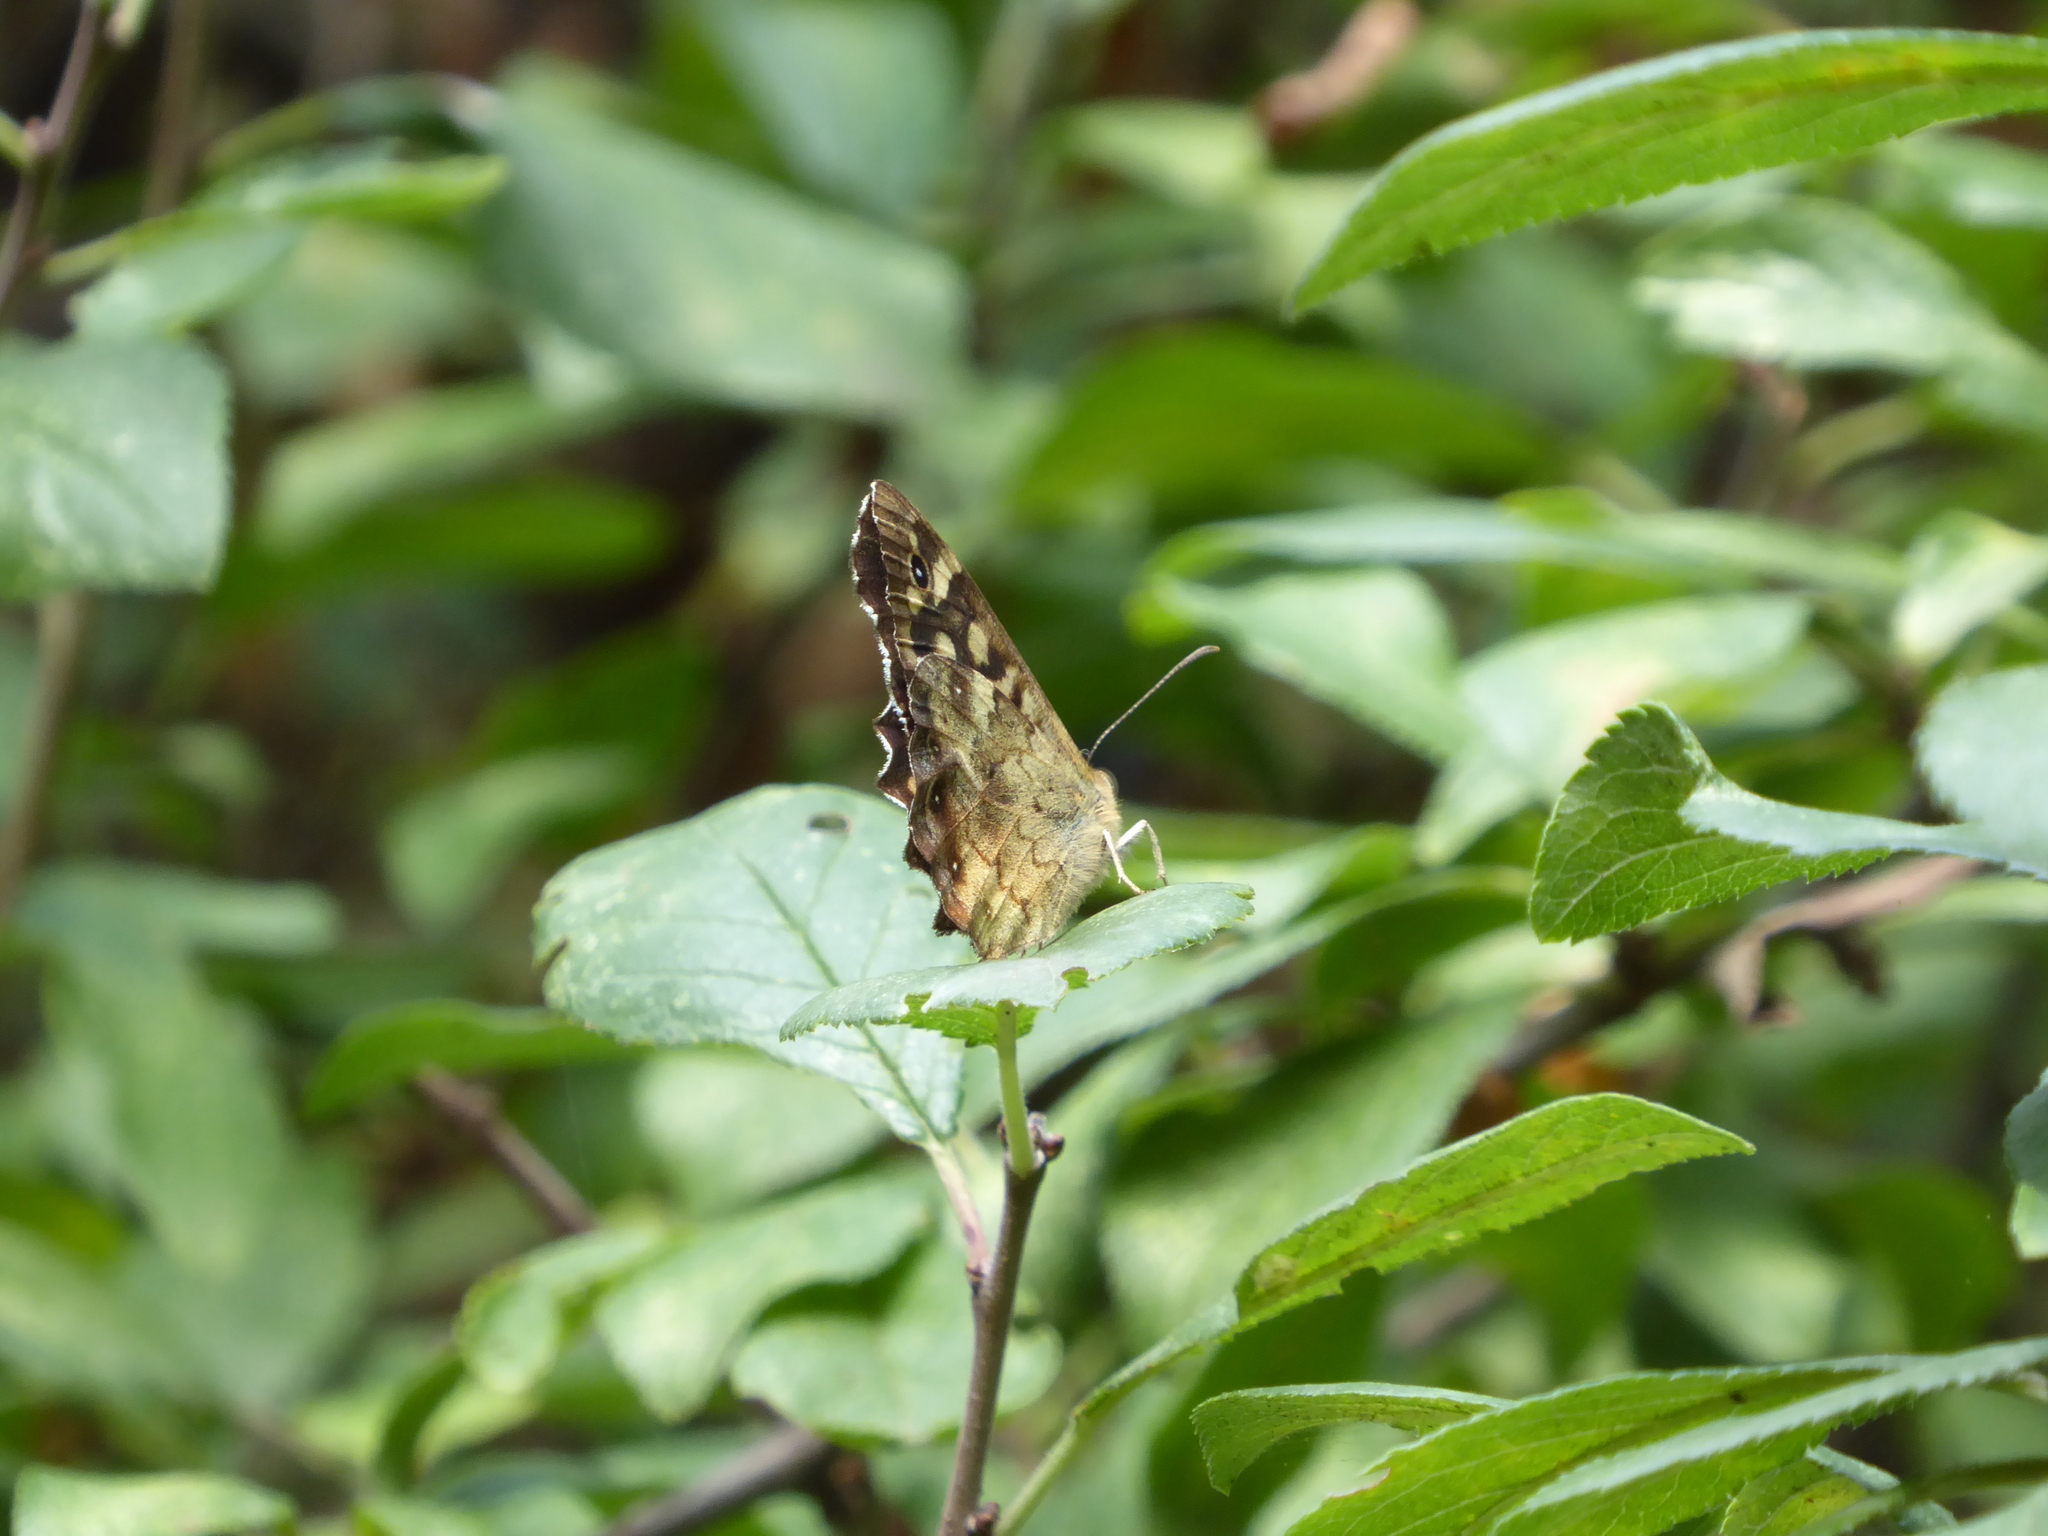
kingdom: Animalia
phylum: Arthropoda
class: Insecta
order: Lepidoptera
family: Nymphalidae
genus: Pararge
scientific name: Pararge aegeria
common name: Speckled wood
